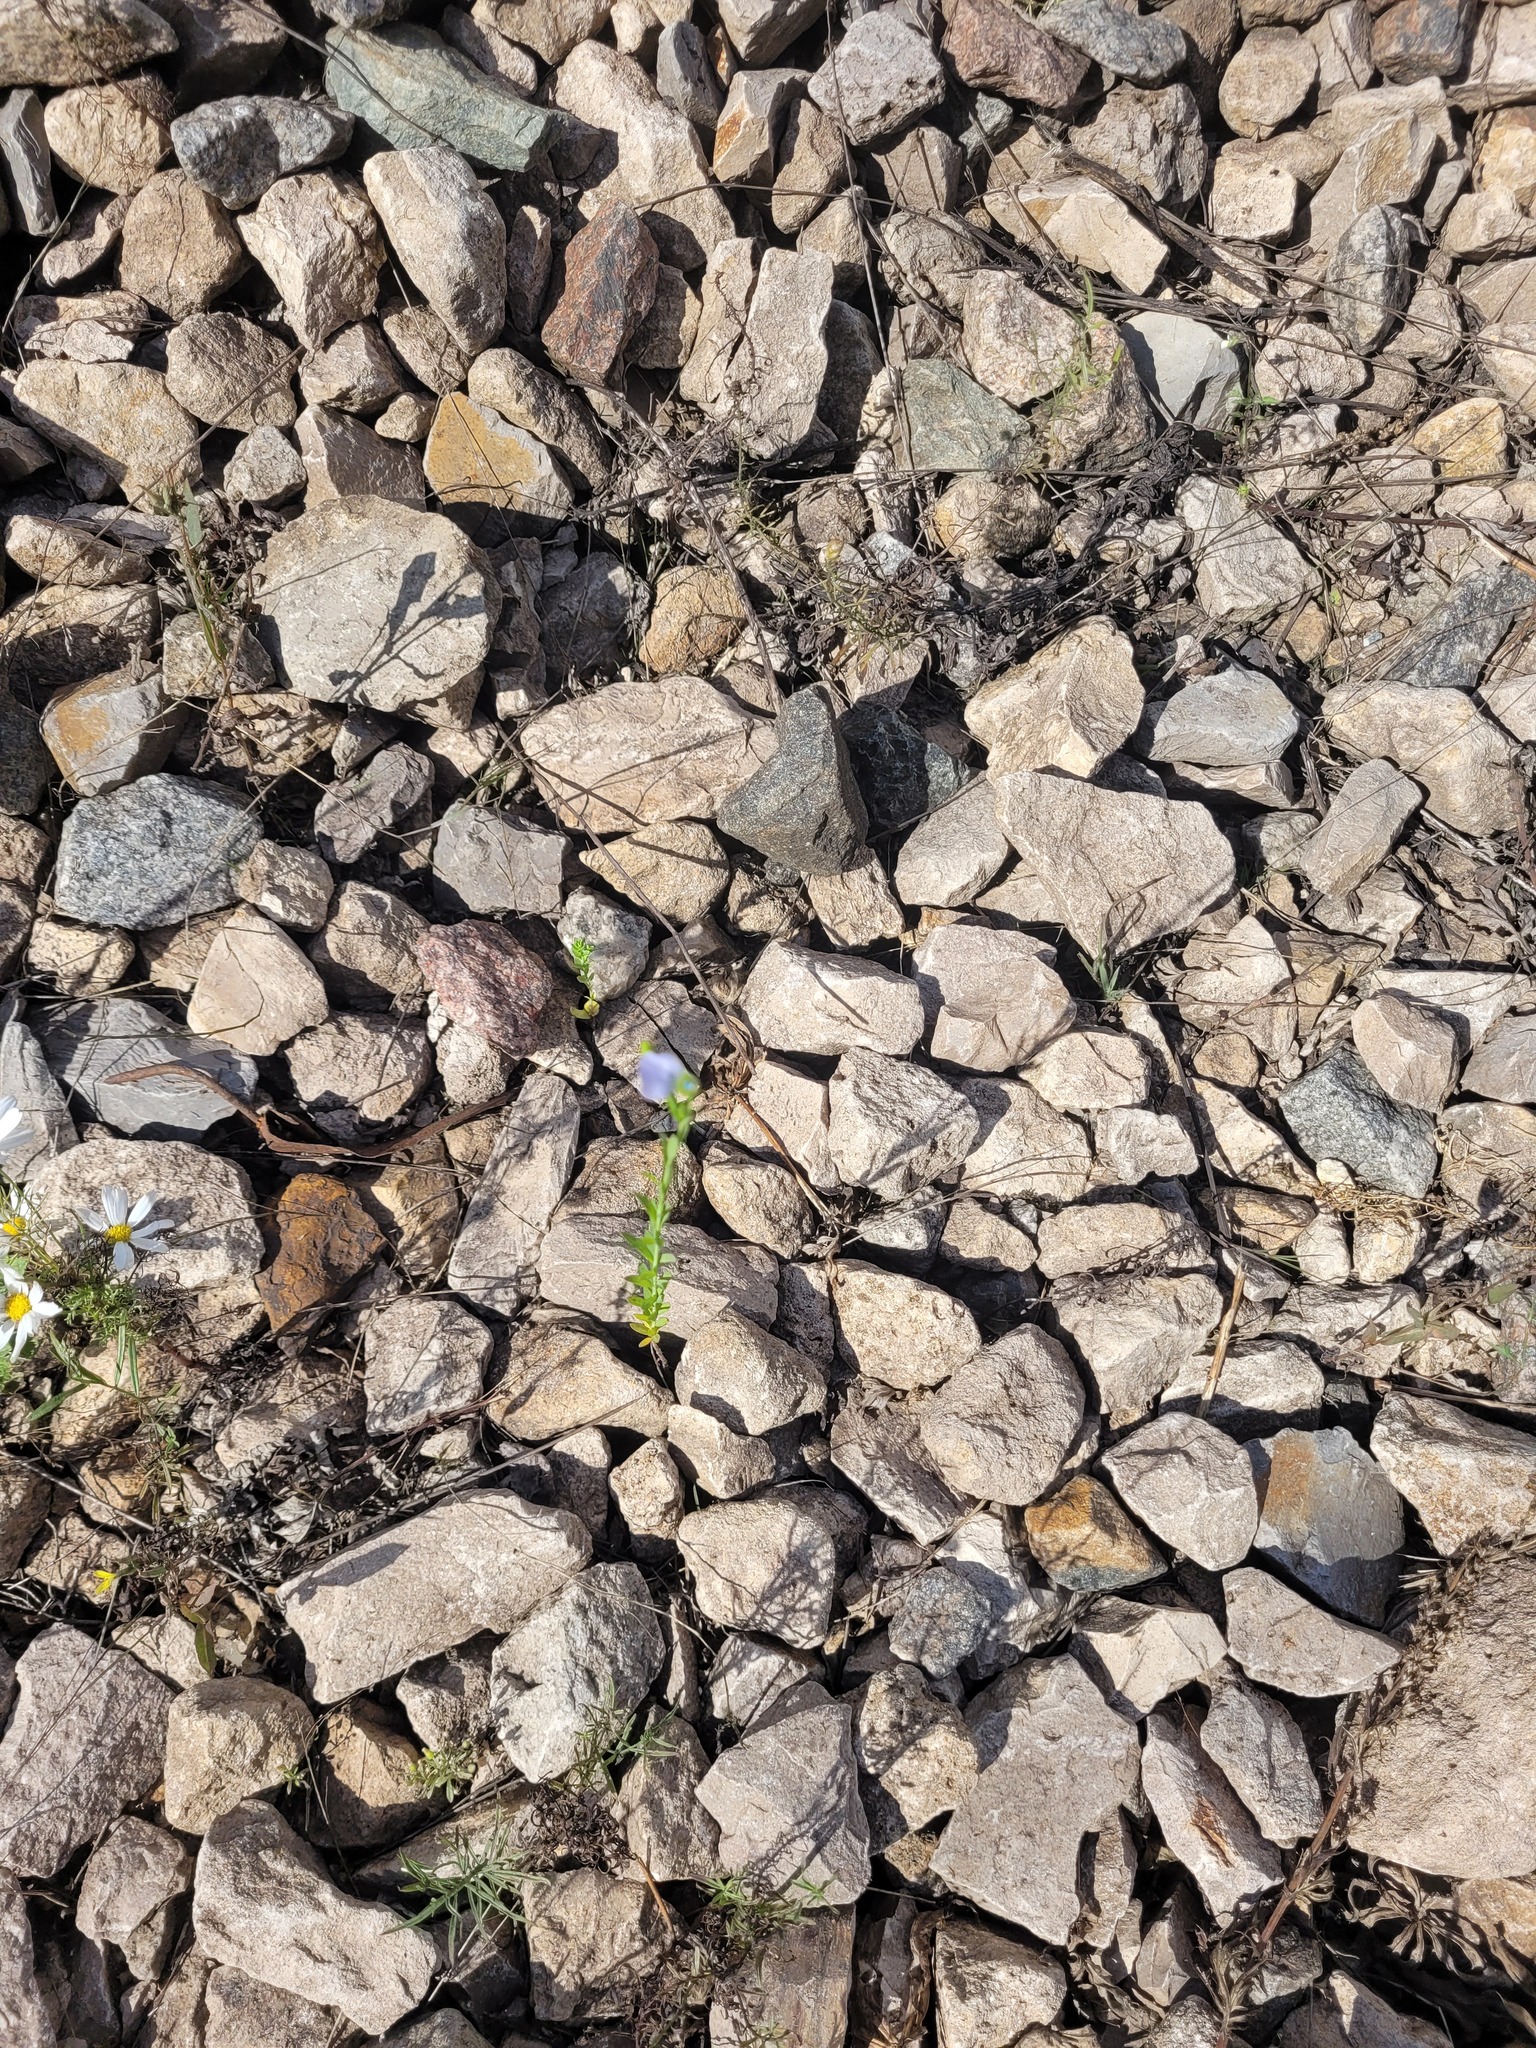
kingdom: Plantae
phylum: Tracheophyta
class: Magnoliopsida
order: Malpighiales
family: Linaceae
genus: Linum
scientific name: Linum usitatissimum
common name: Flax
